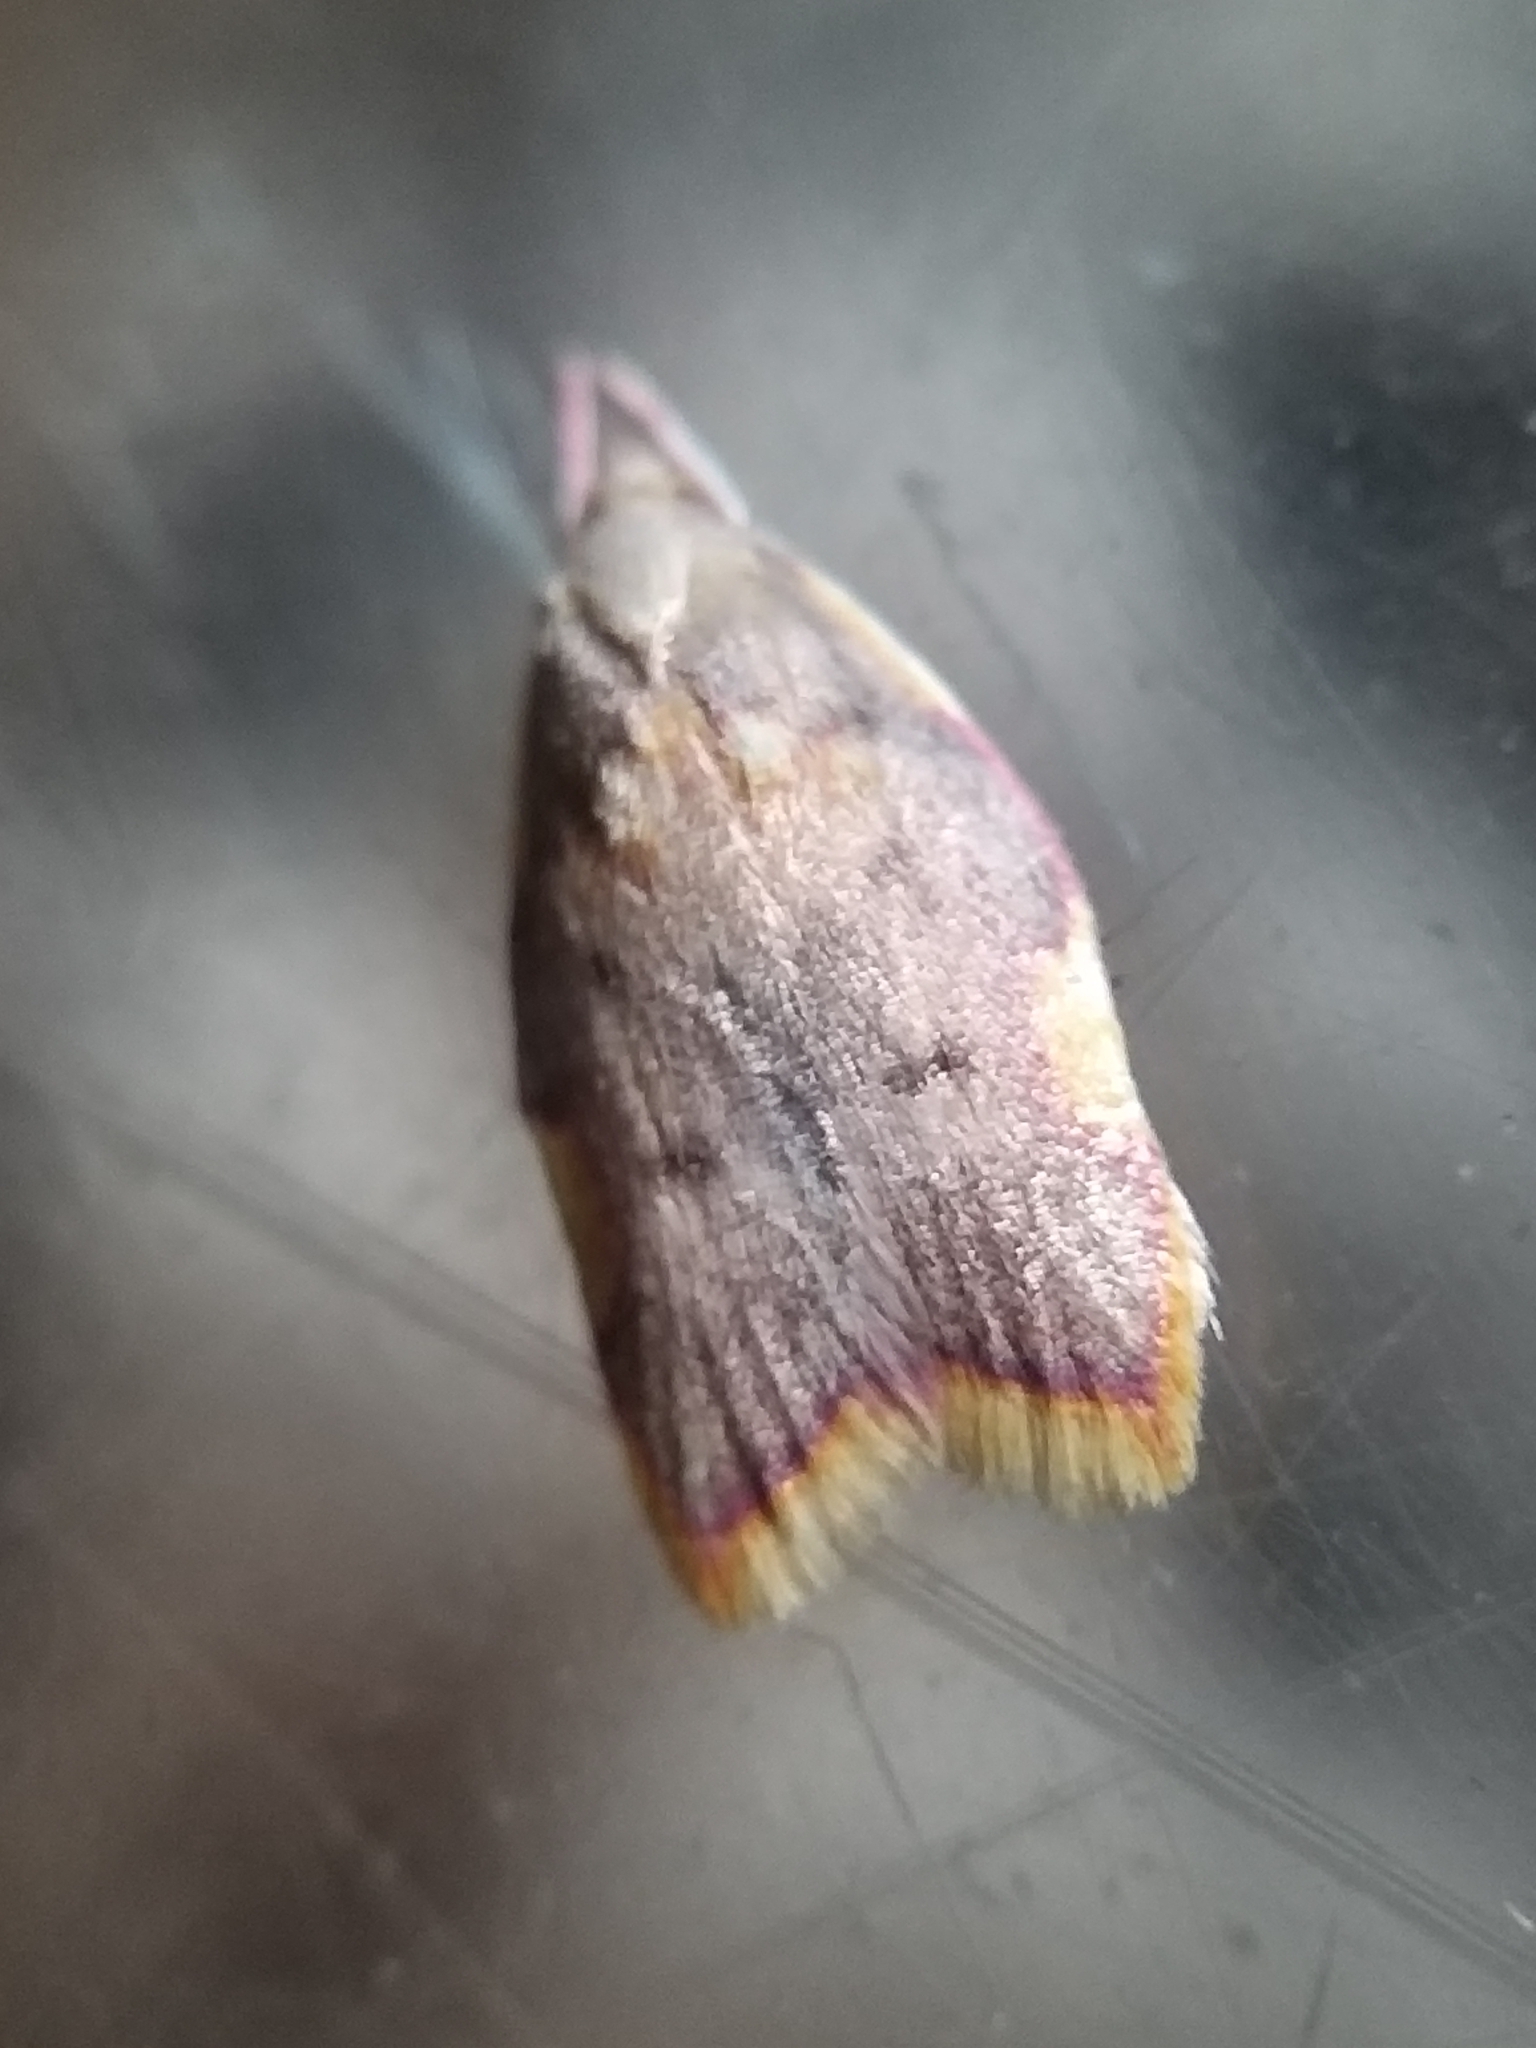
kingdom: Animalia
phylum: Arthropoda
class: Insecta
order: Lepidoptera
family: Peleopodidae
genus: Carcina
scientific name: Carcina quercana
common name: Moth
